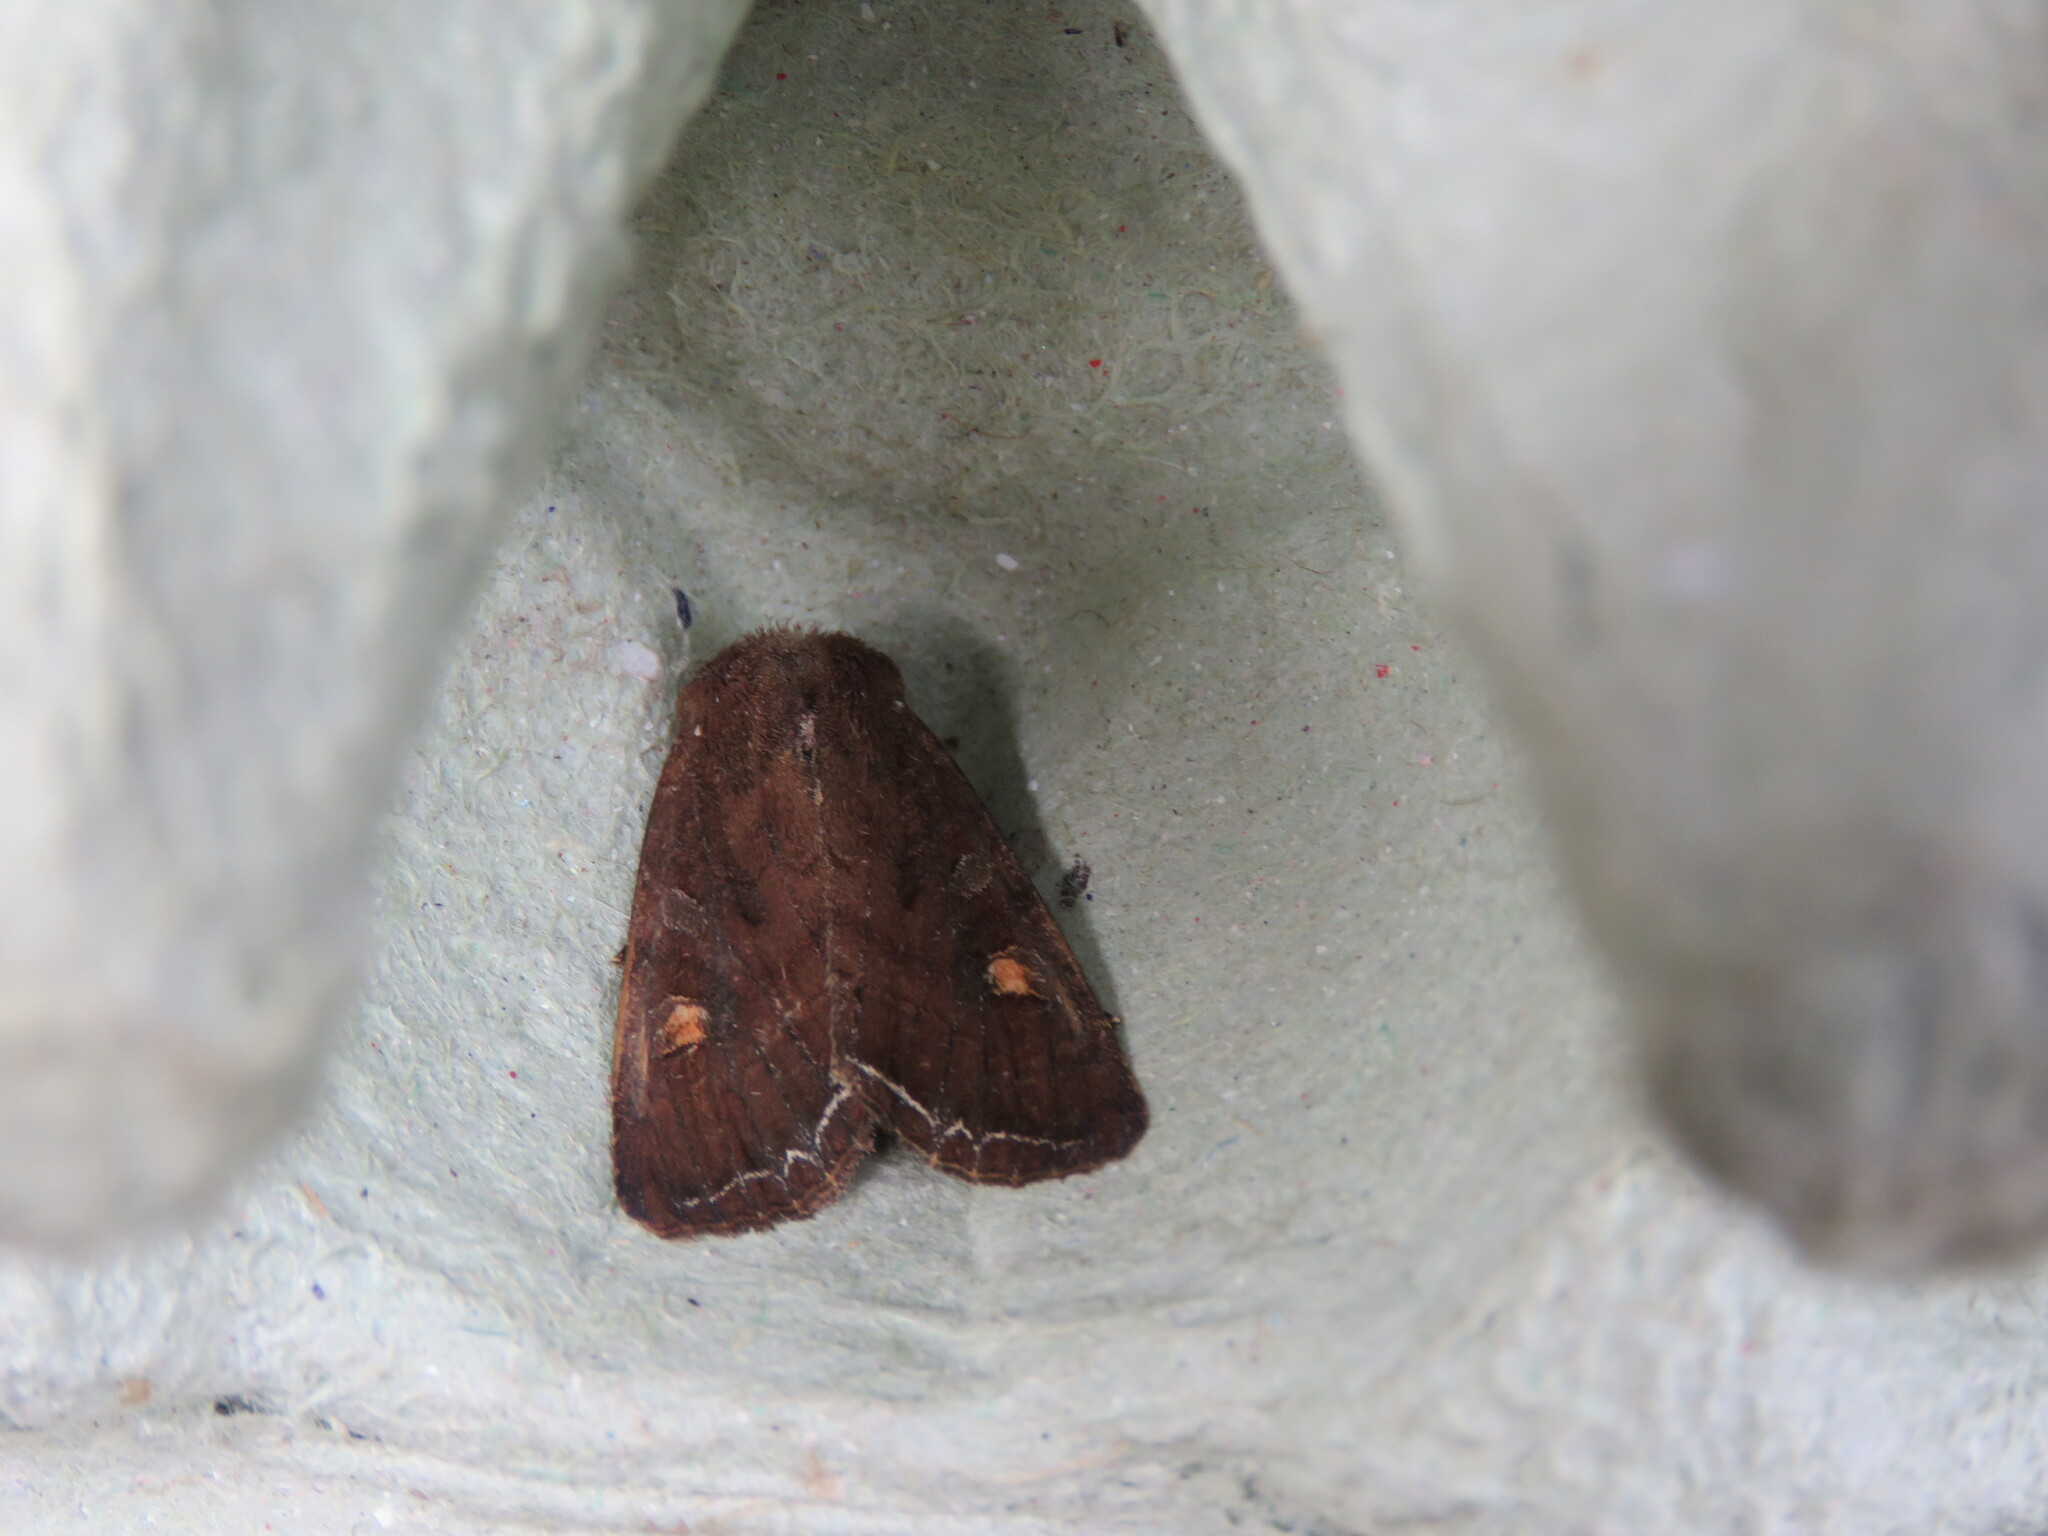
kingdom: Animalia
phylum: Arthropoda
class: Insecta
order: Lepidoptera
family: Noctuidae
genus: Lacanobia
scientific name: Lacanobia oleracea
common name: Bright-line brown-eye
